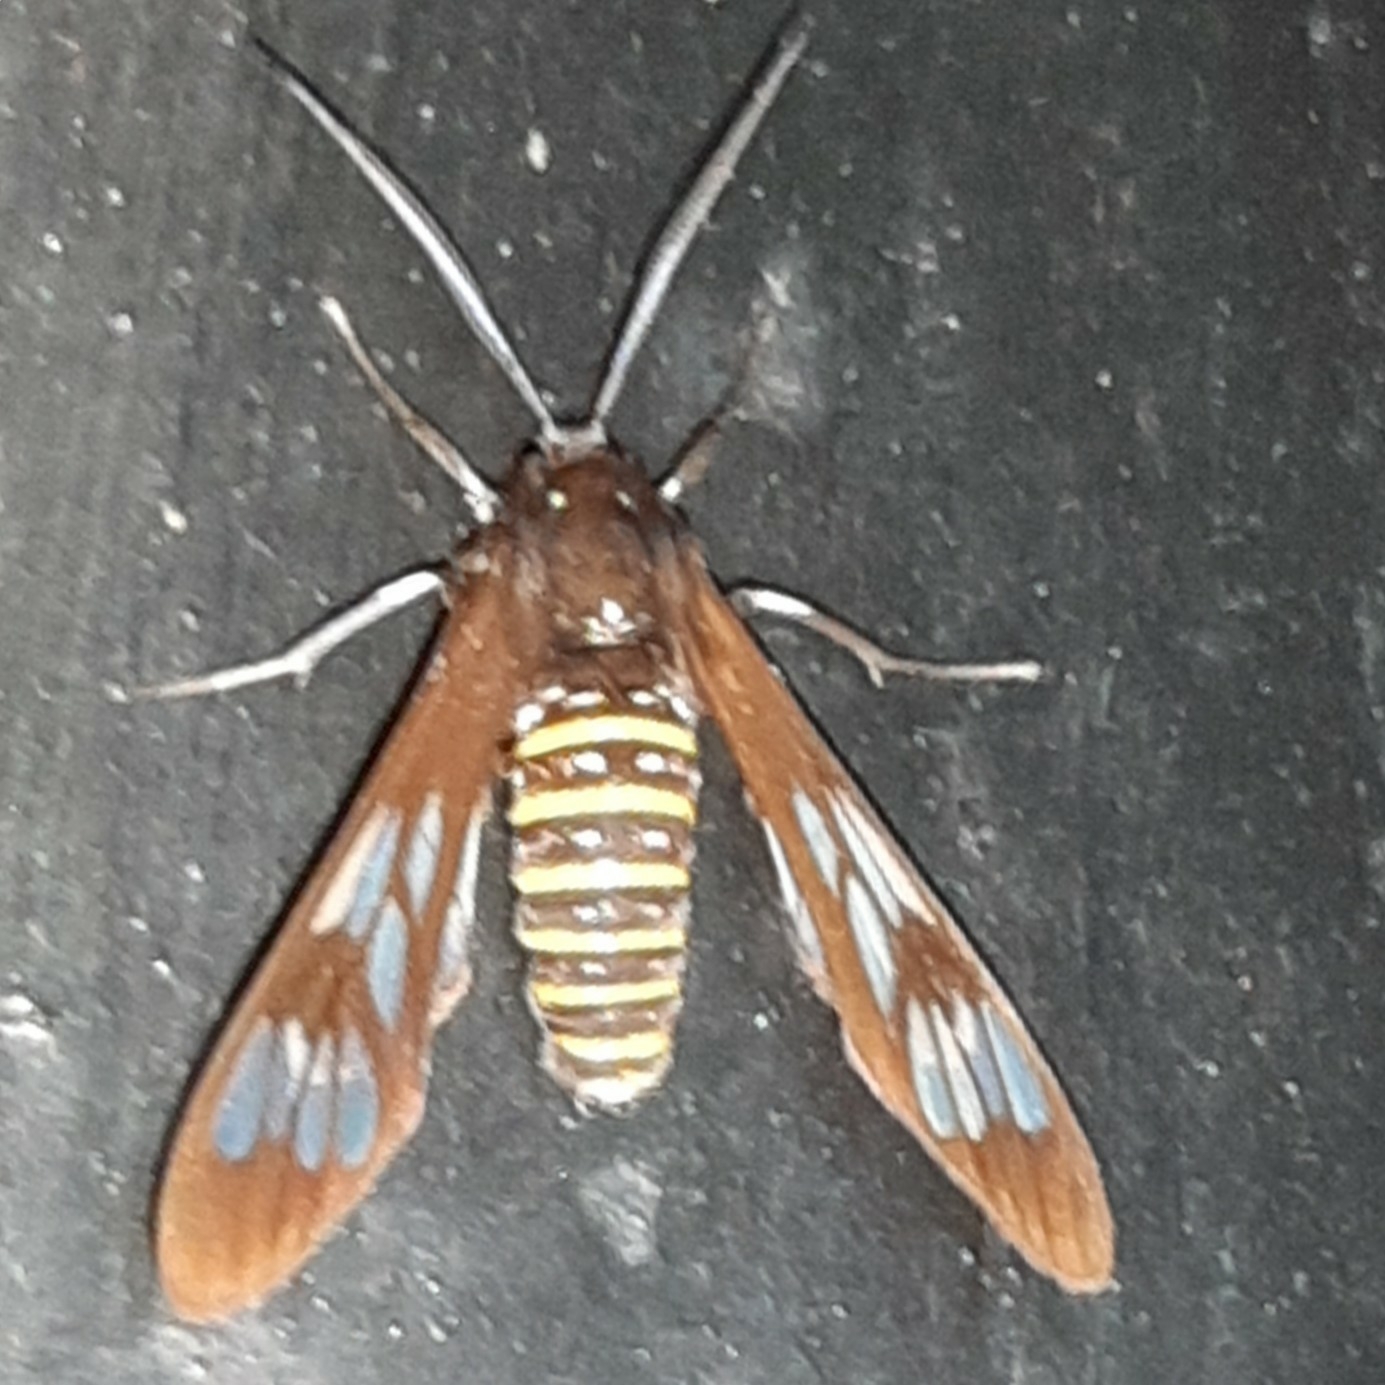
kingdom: Animalia
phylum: Arthropoda
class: Insecta
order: Lepidoptera
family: Erebidae
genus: Phaenarete
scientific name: Phaenarete diana
